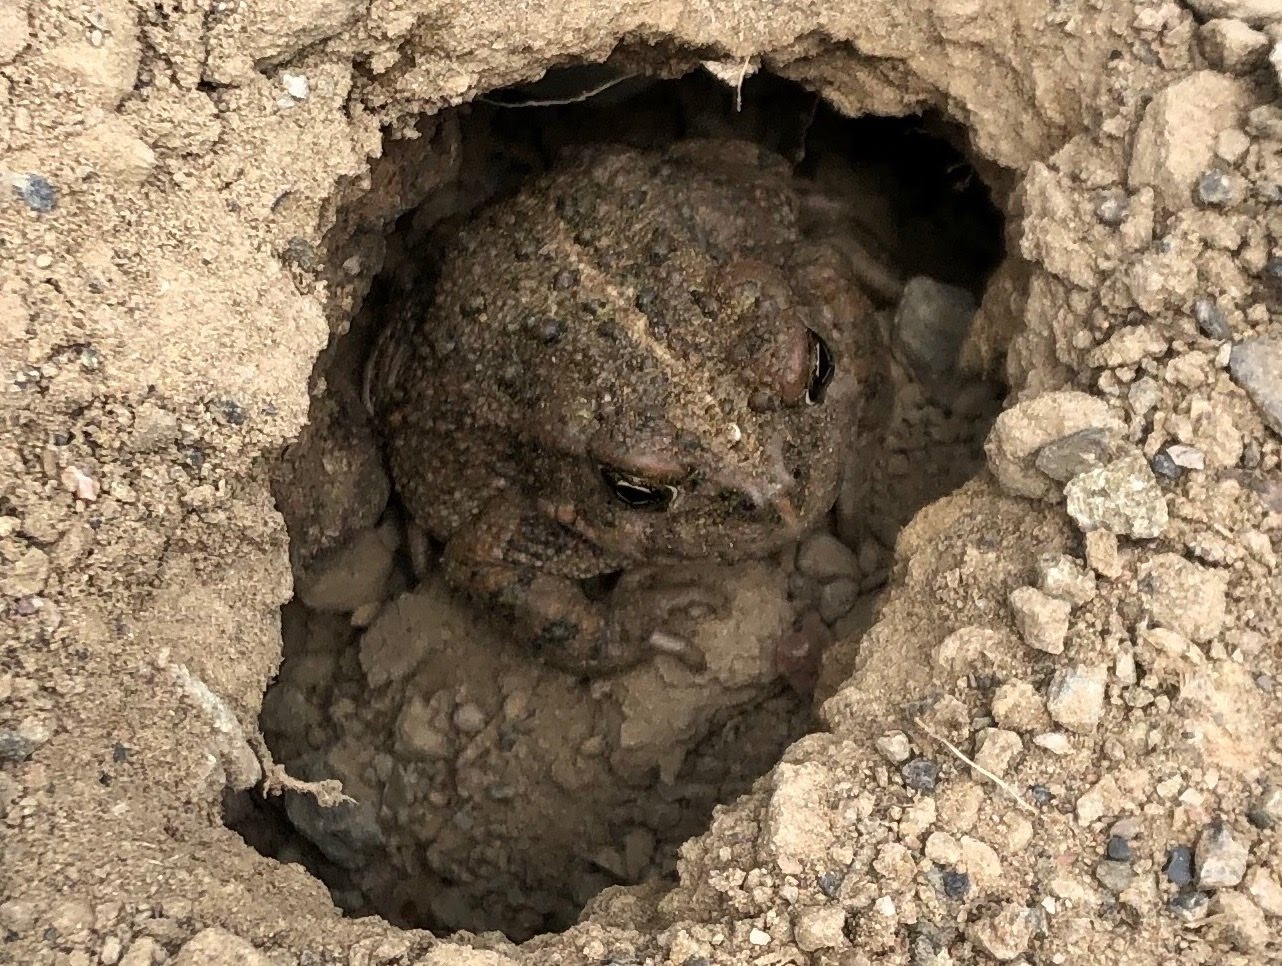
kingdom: Animalia
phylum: Chordata
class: Amphibia
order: Anura
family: Bufonidae
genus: Anaxyrus
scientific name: Anaxyrus boreas
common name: Western toad
